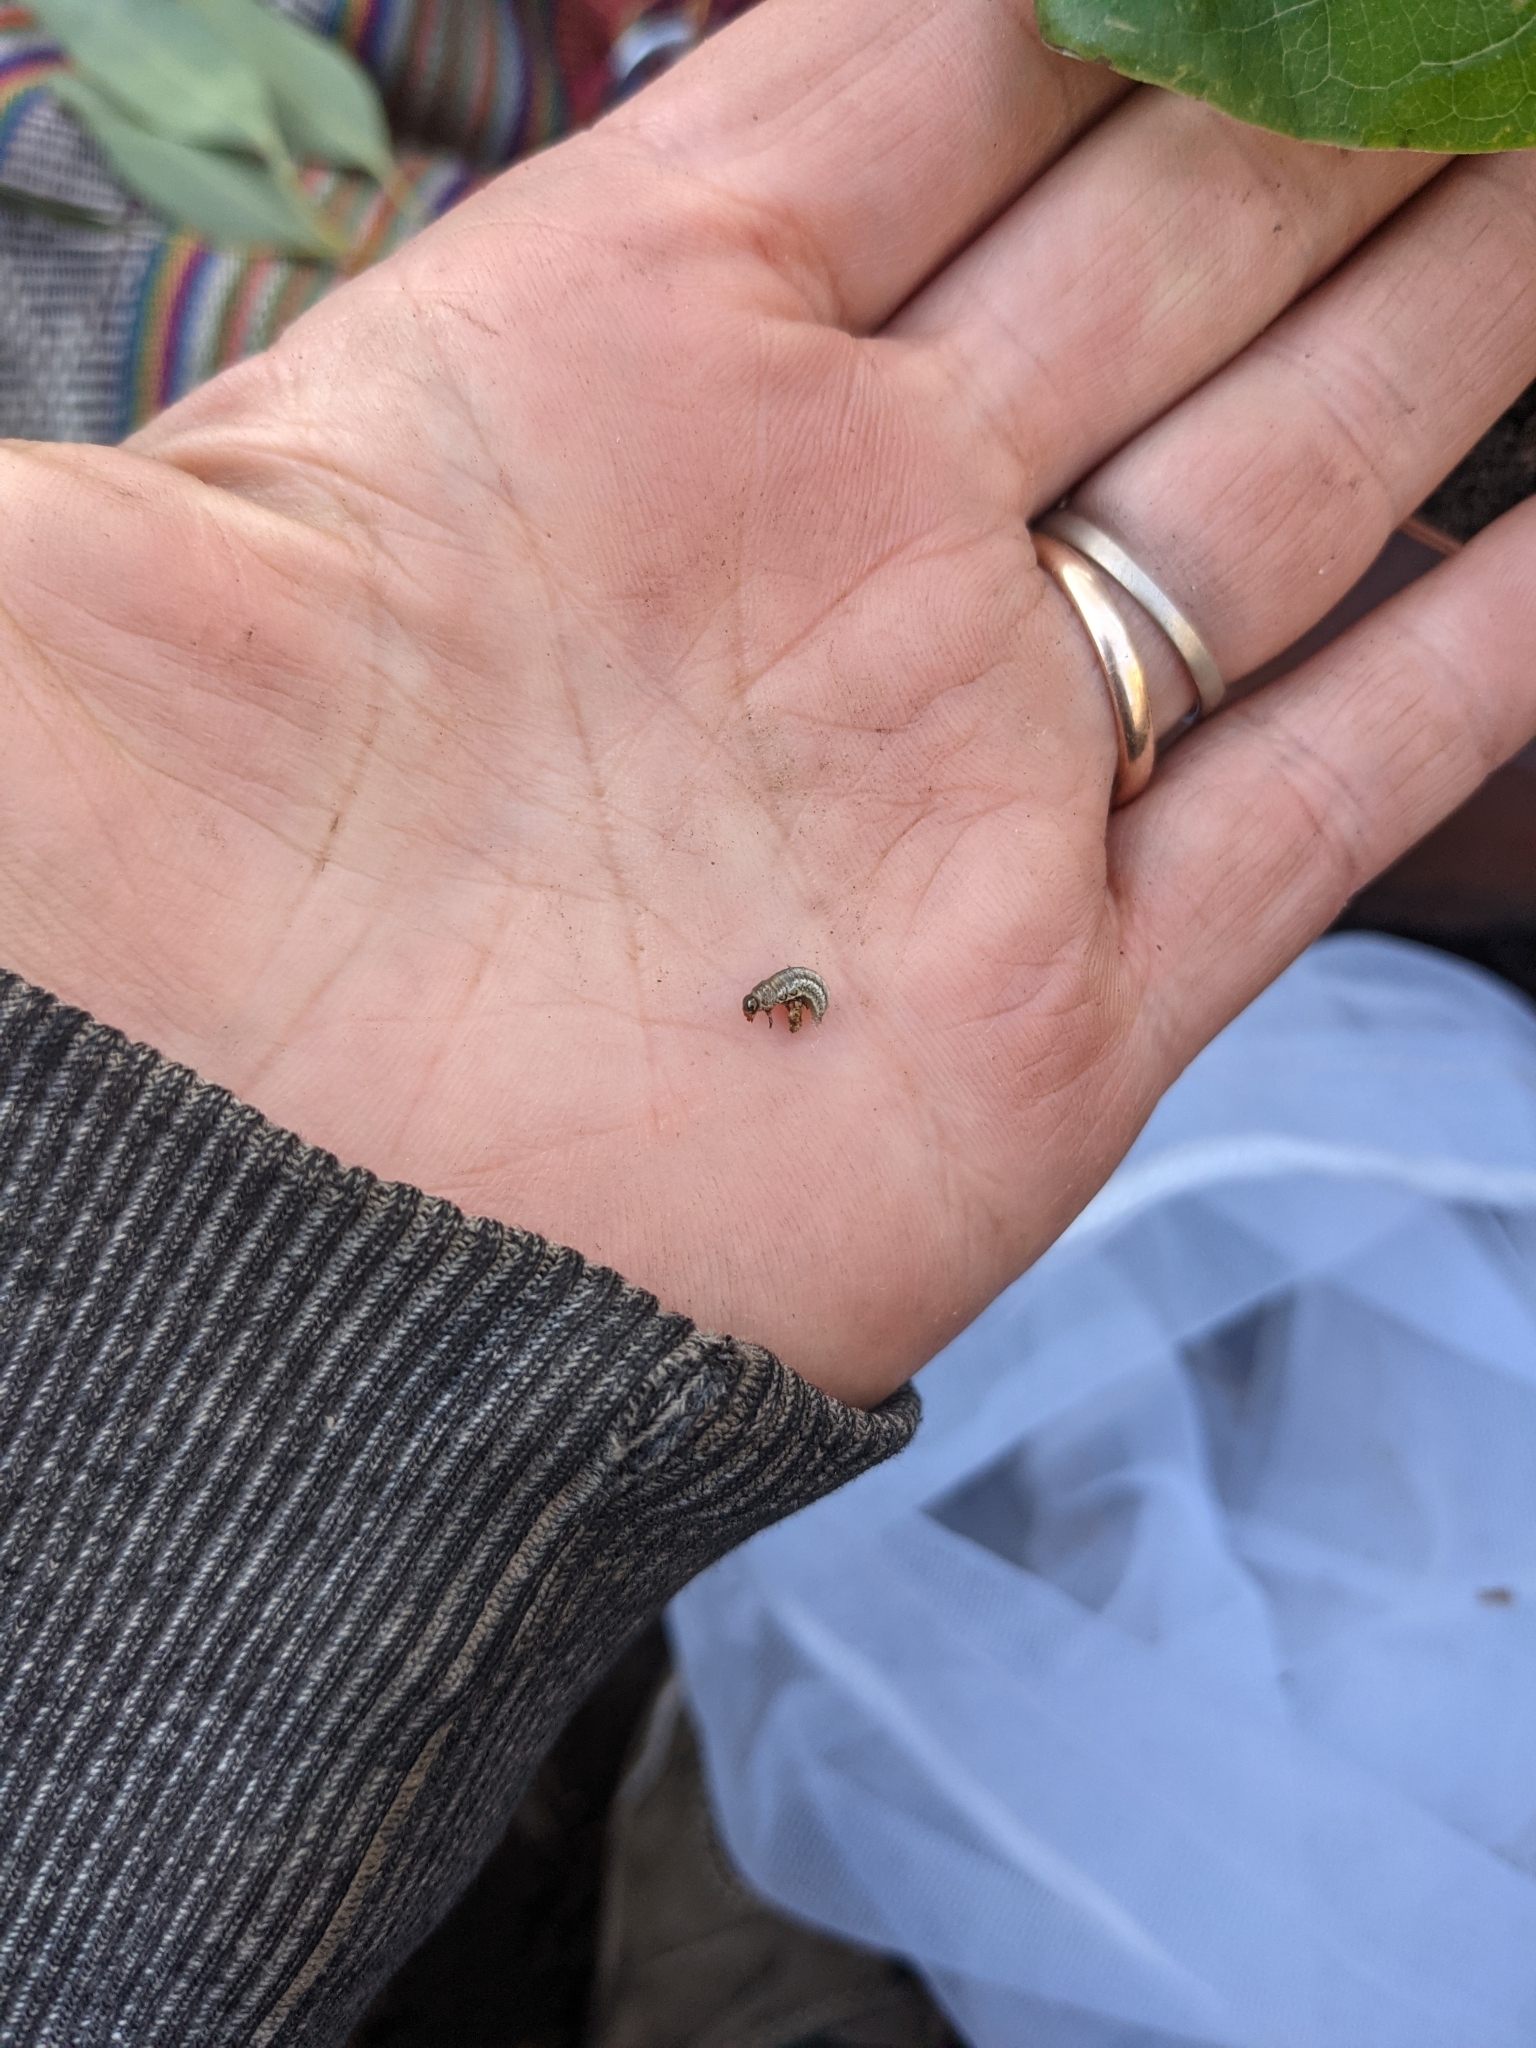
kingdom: Animalia
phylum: Arthropoda
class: Insecta
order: Coleoptera
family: Chrysomelidae
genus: Chrysolina
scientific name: Chrysolina americana
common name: Rosemary beetle
